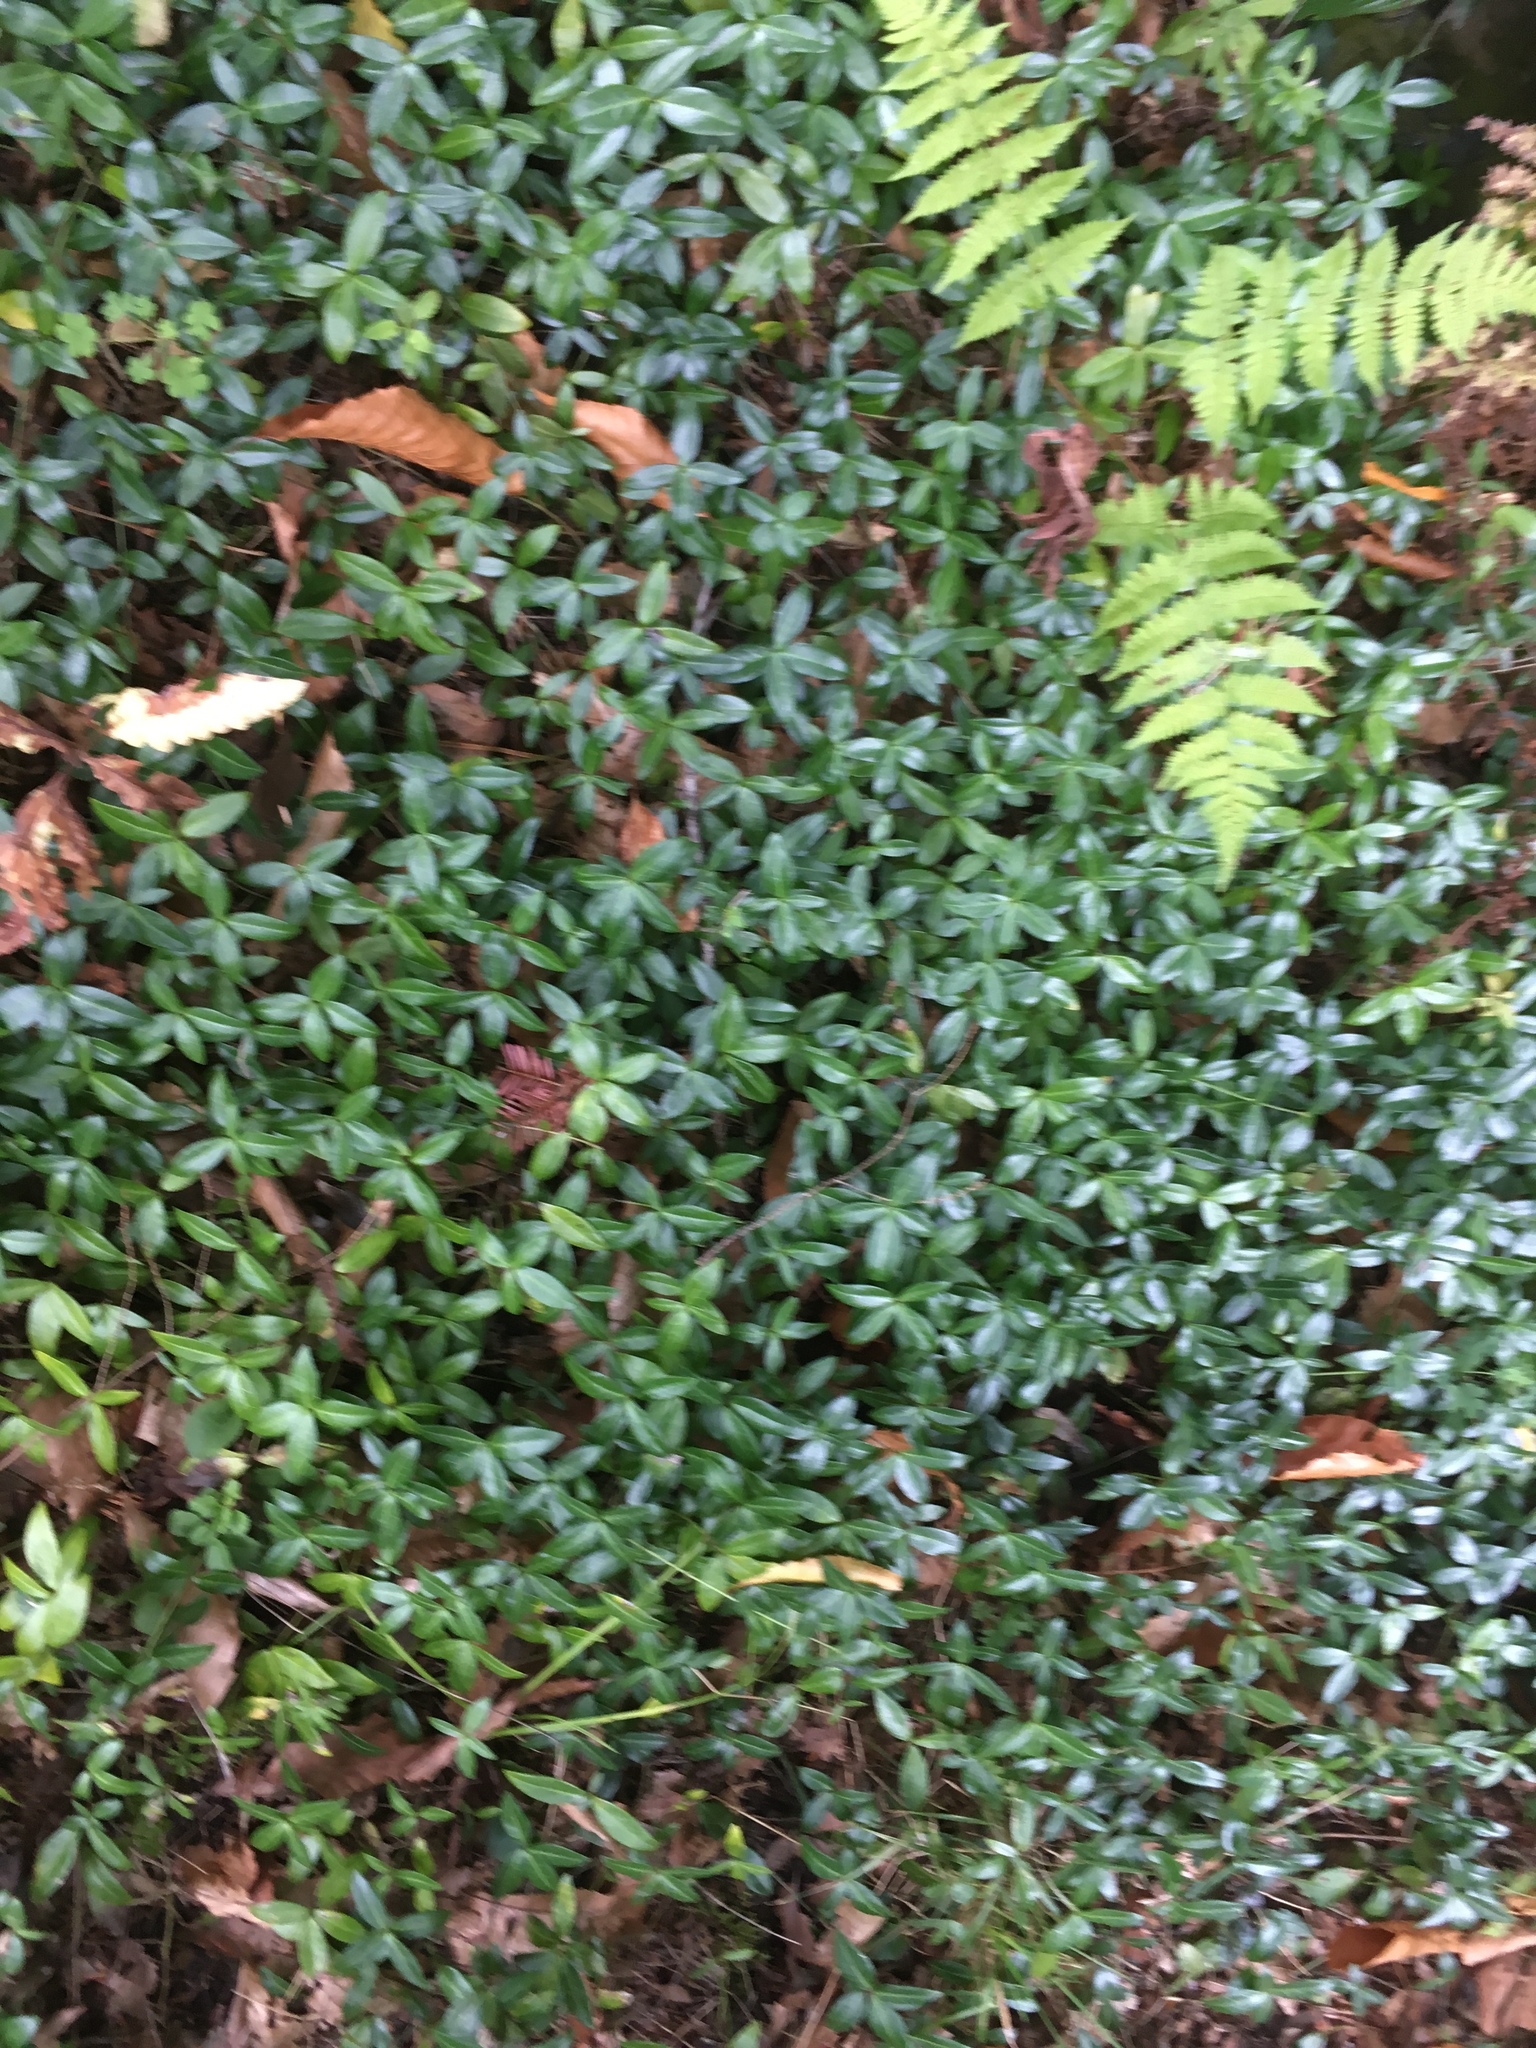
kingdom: Plantae
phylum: Tracheophyta
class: Magnoliopsida
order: Gentianales
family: Apocynaceae
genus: Vinca
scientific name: Vinca minor
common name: Lesser periwinkle
